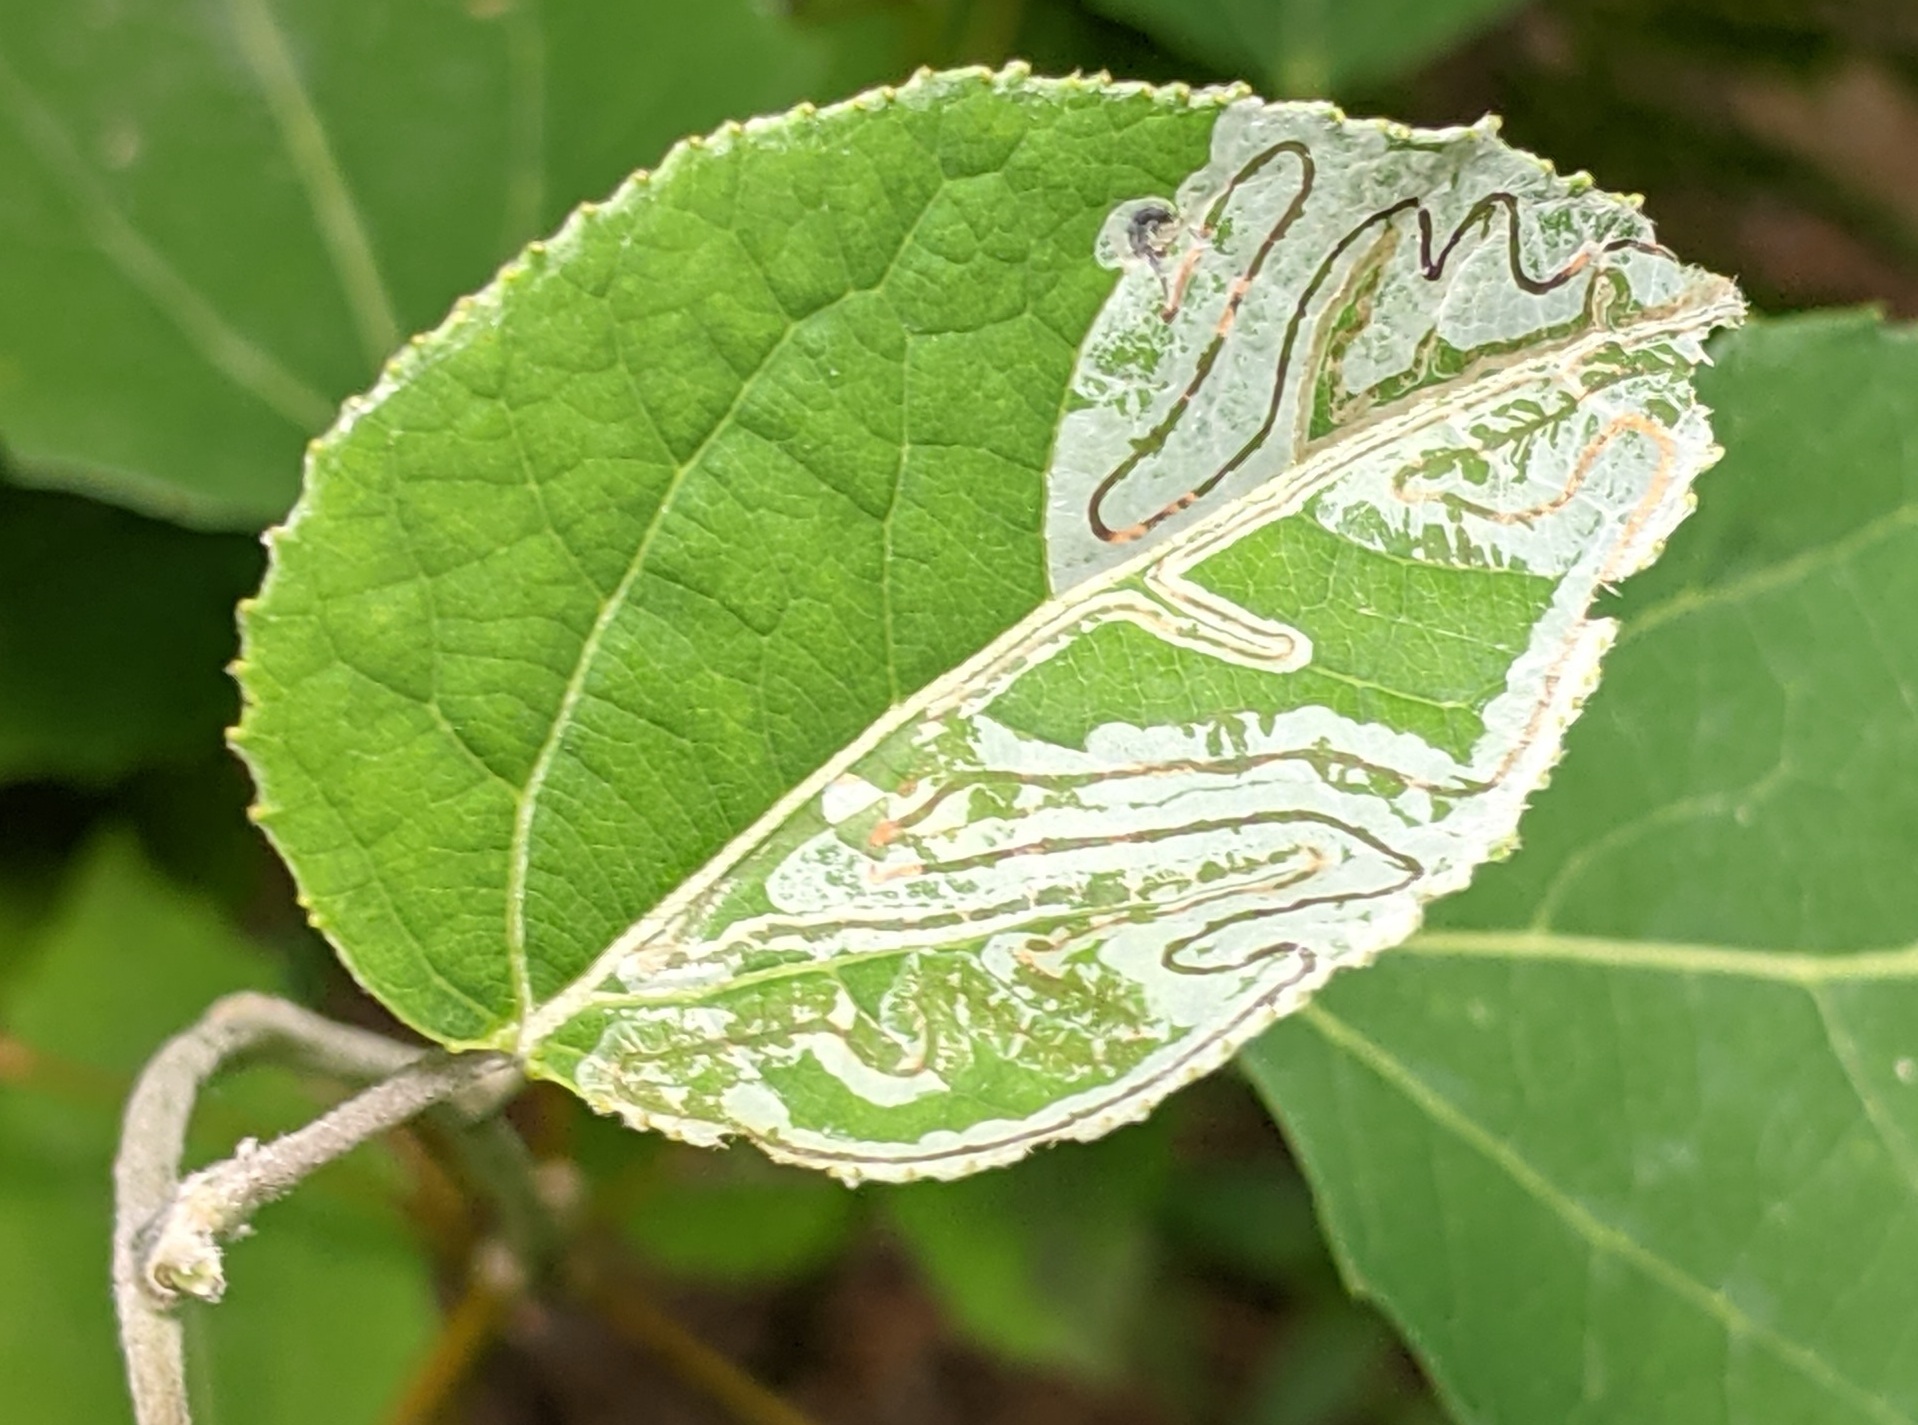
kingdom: Animalia
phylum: Arthropoda
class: Insecta
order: Lepidoptera
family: Gracillariidae
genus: Phyllocnistis
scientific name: Phyllocnistis populiella
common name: Aspen serpentine leafminer moth
